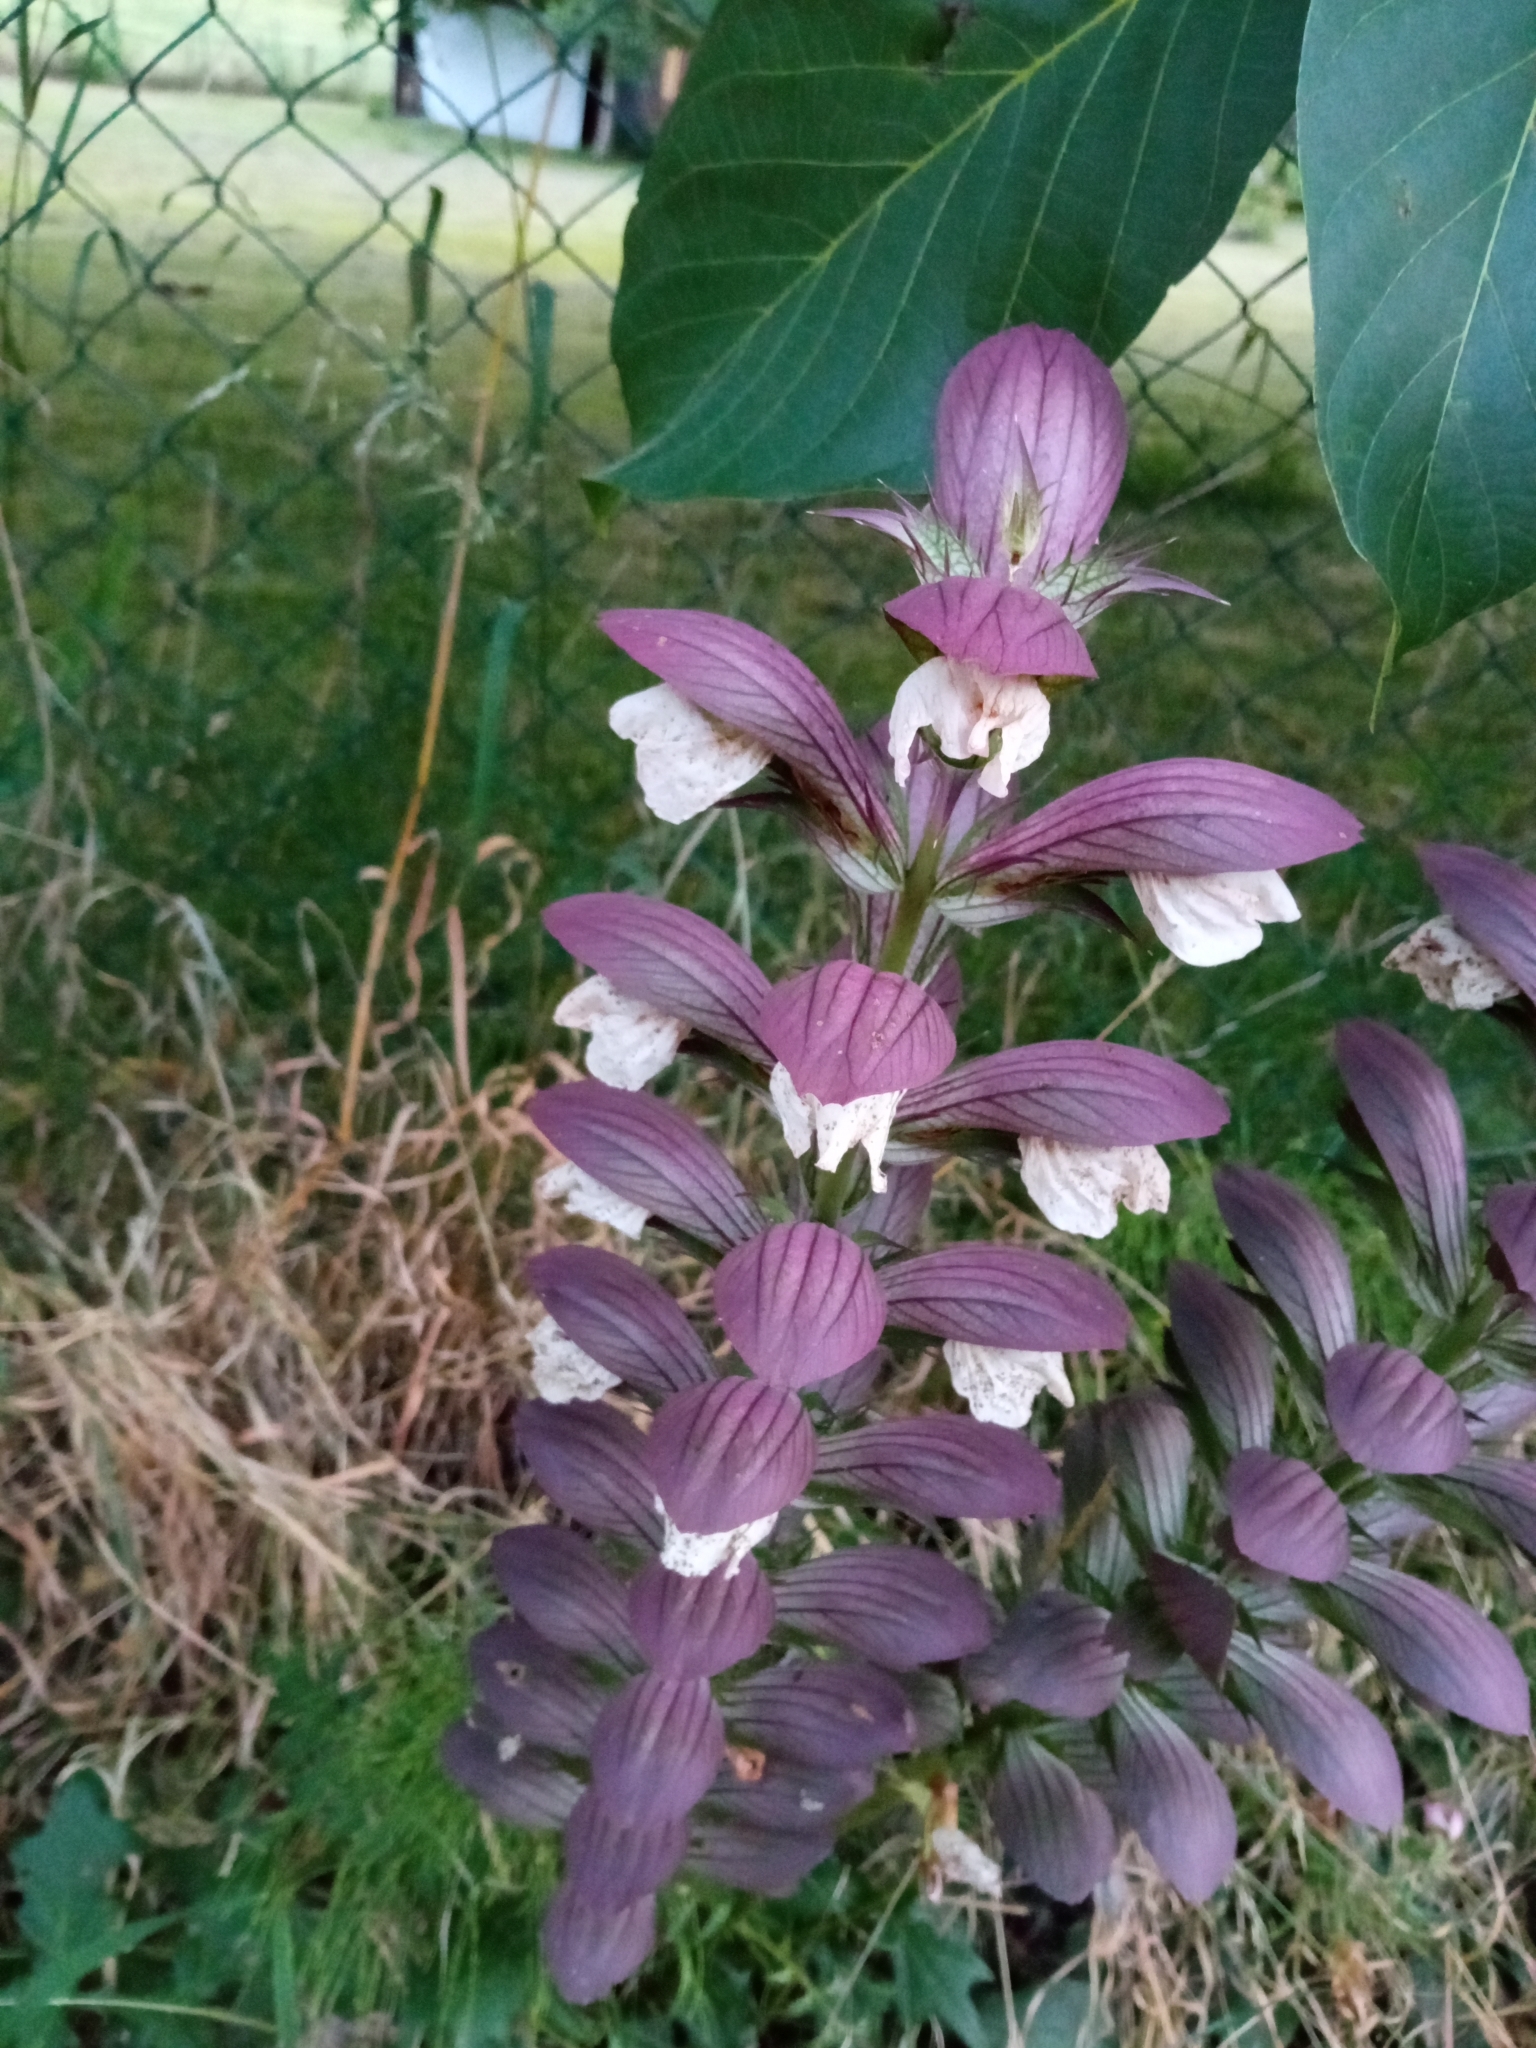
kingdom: Plantae
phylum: Tracheophyta
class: Magnoliopsida
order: Lamiales
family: Acanthaceae
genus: Acanthus
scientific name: Acanthus mollis
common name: Bear's-breech
